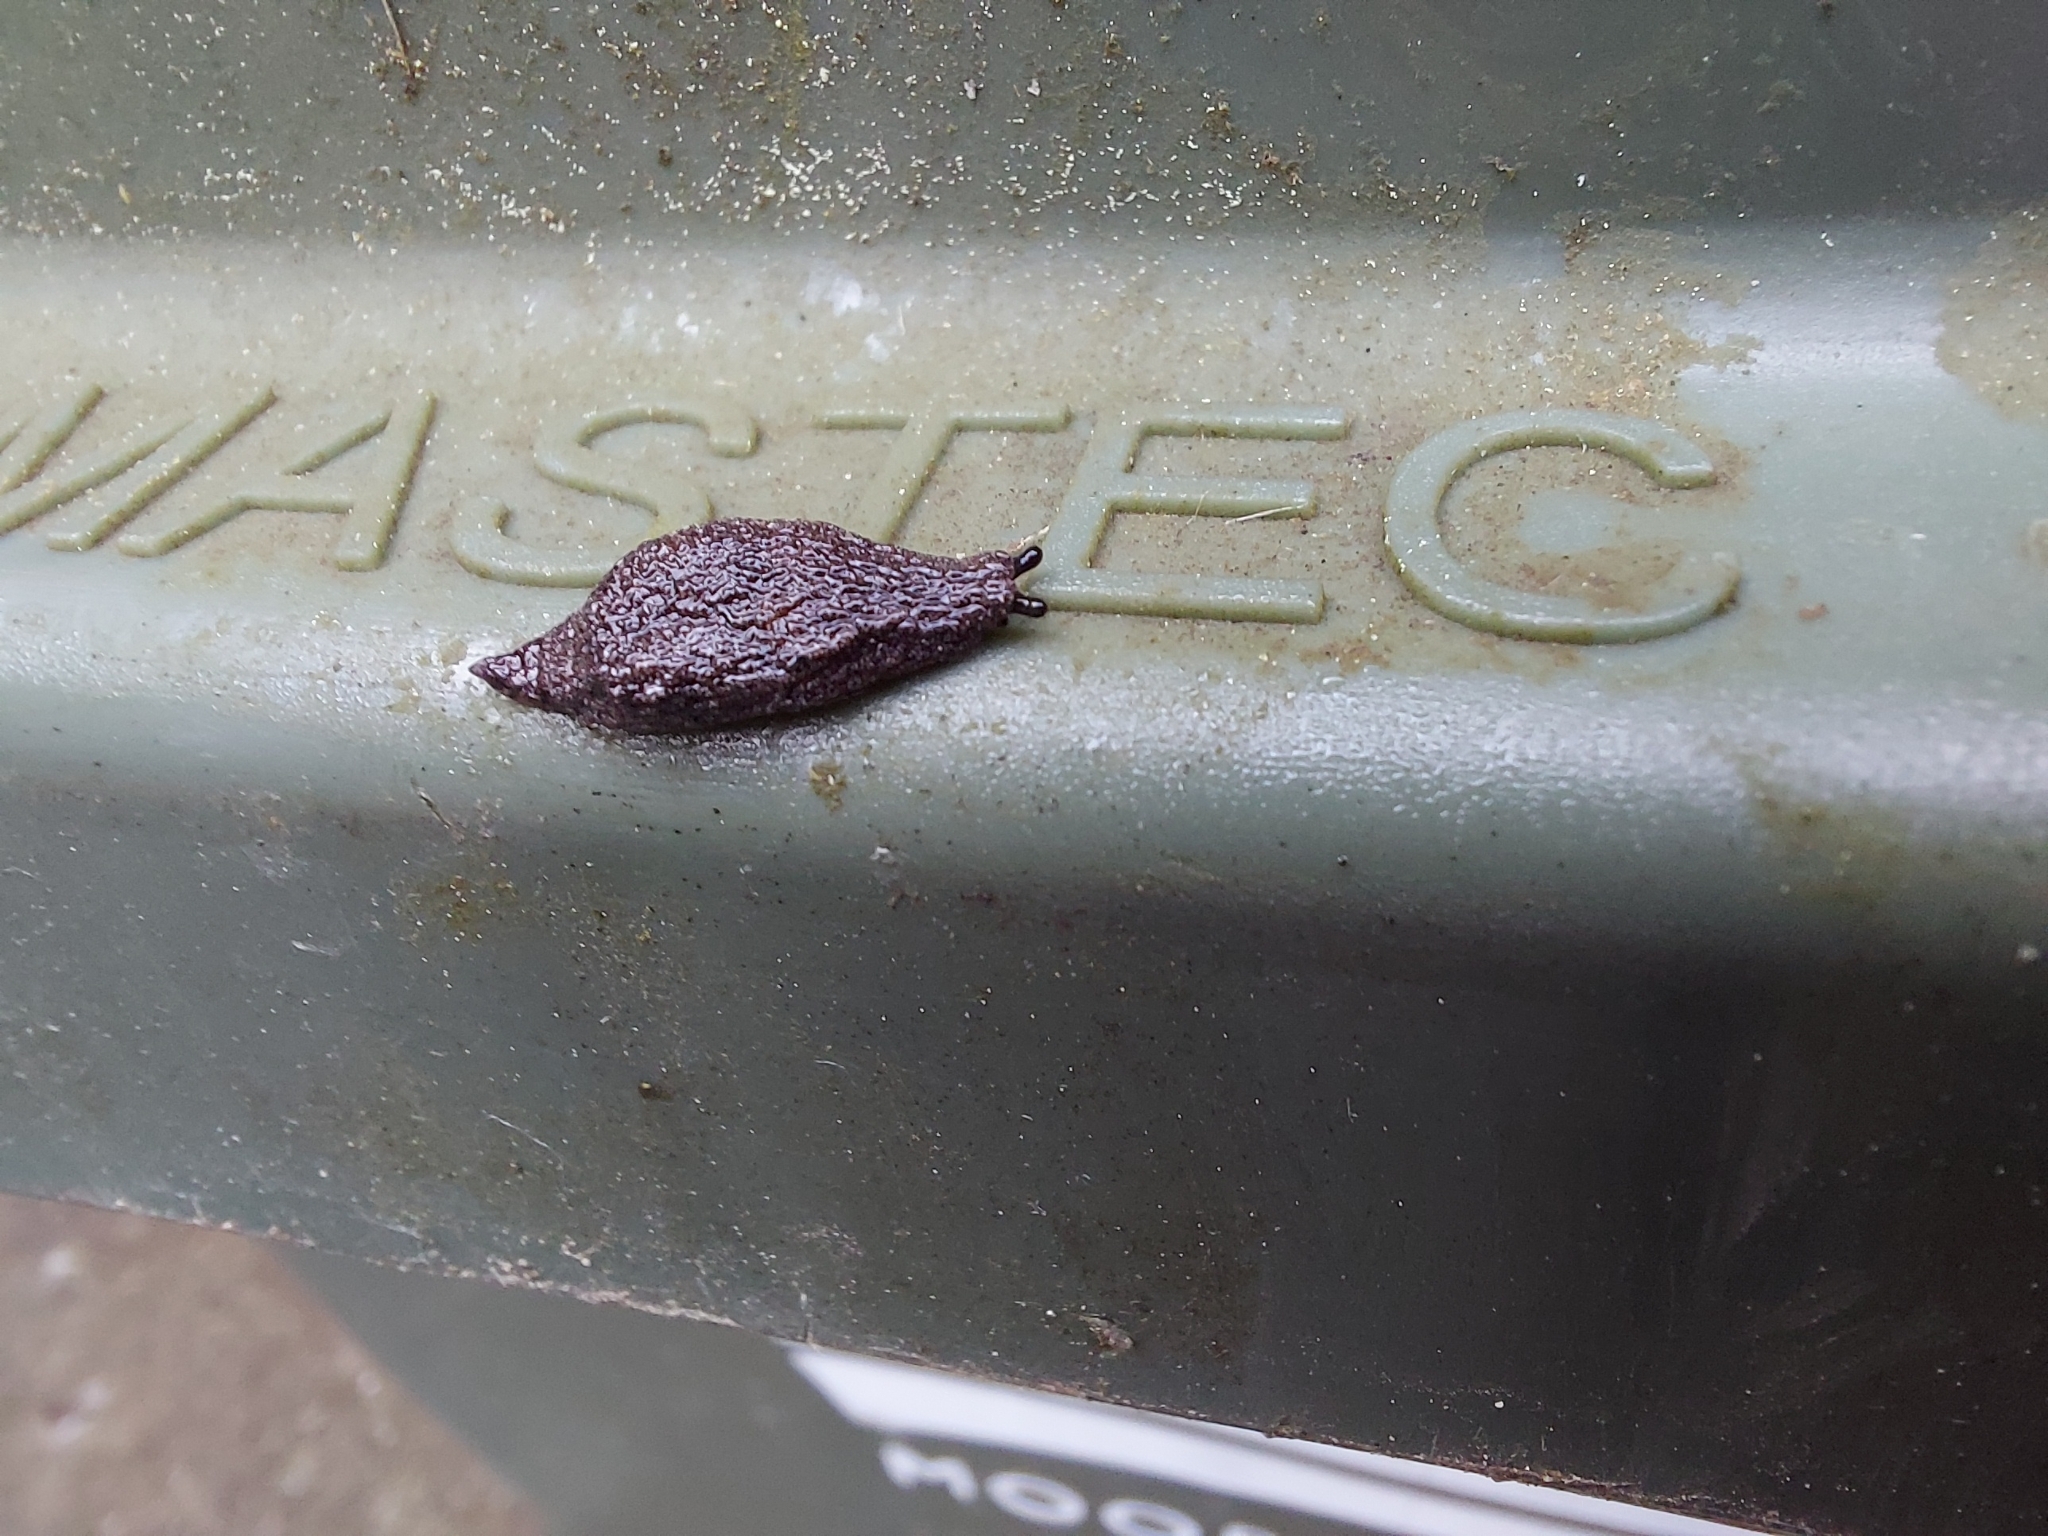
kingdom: Animalia
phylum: Mollusca
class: Gastropoda
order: Stylommatophora
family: Cystopeltidae
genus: Cystopelta
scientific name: Cystopelta
